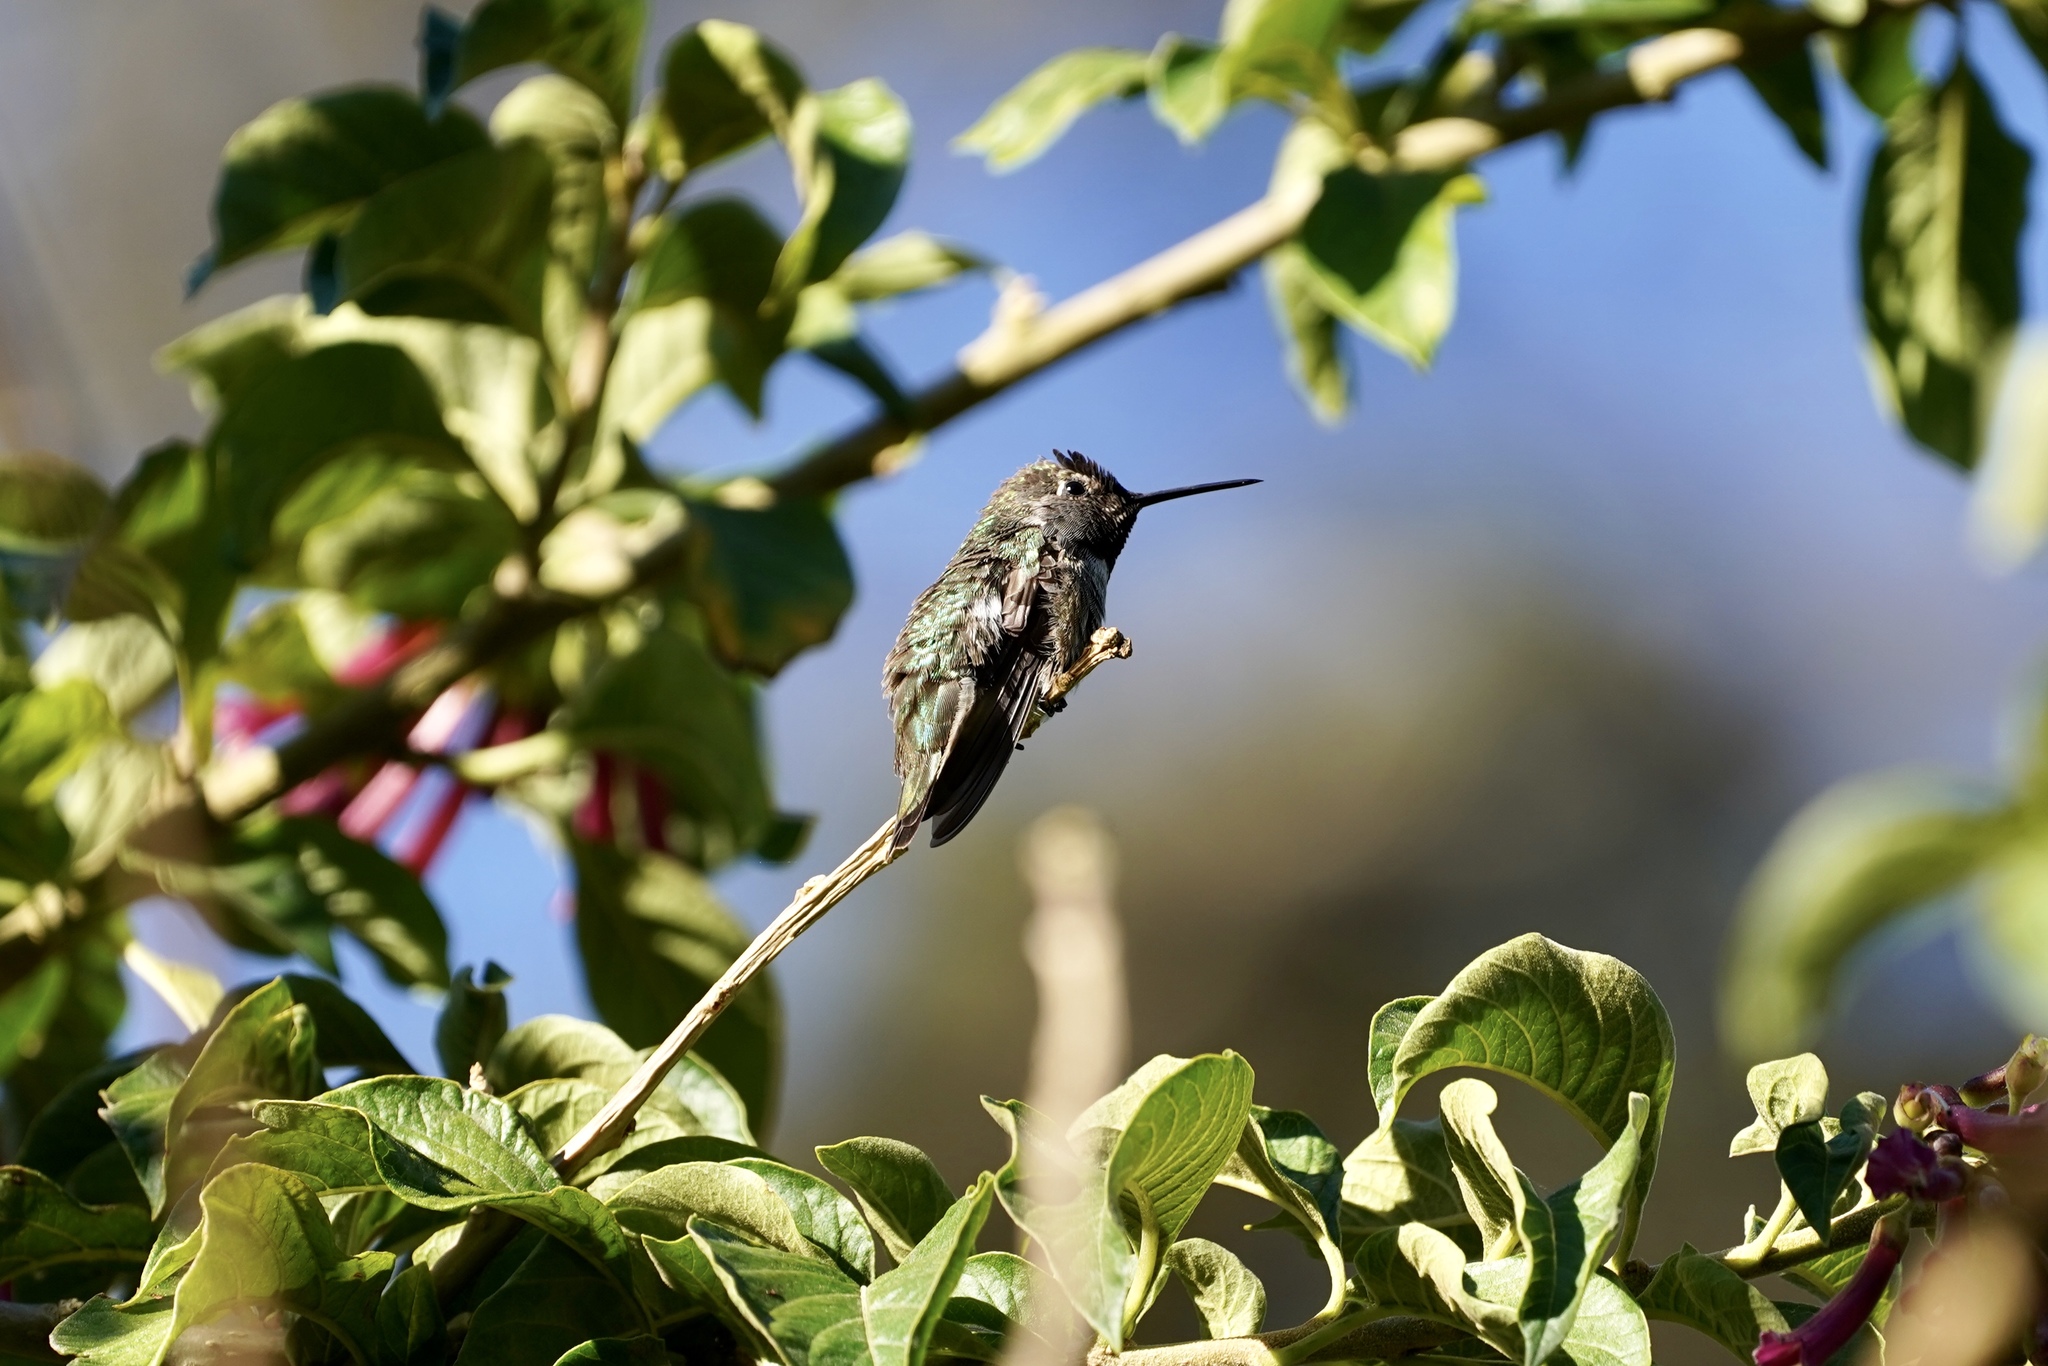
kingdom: Animalia
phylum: Chordata
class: Aves
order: Apodiformes
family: Trochilidae
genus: Calypte
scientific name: Calypte anna
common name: Anna's hummingbird
